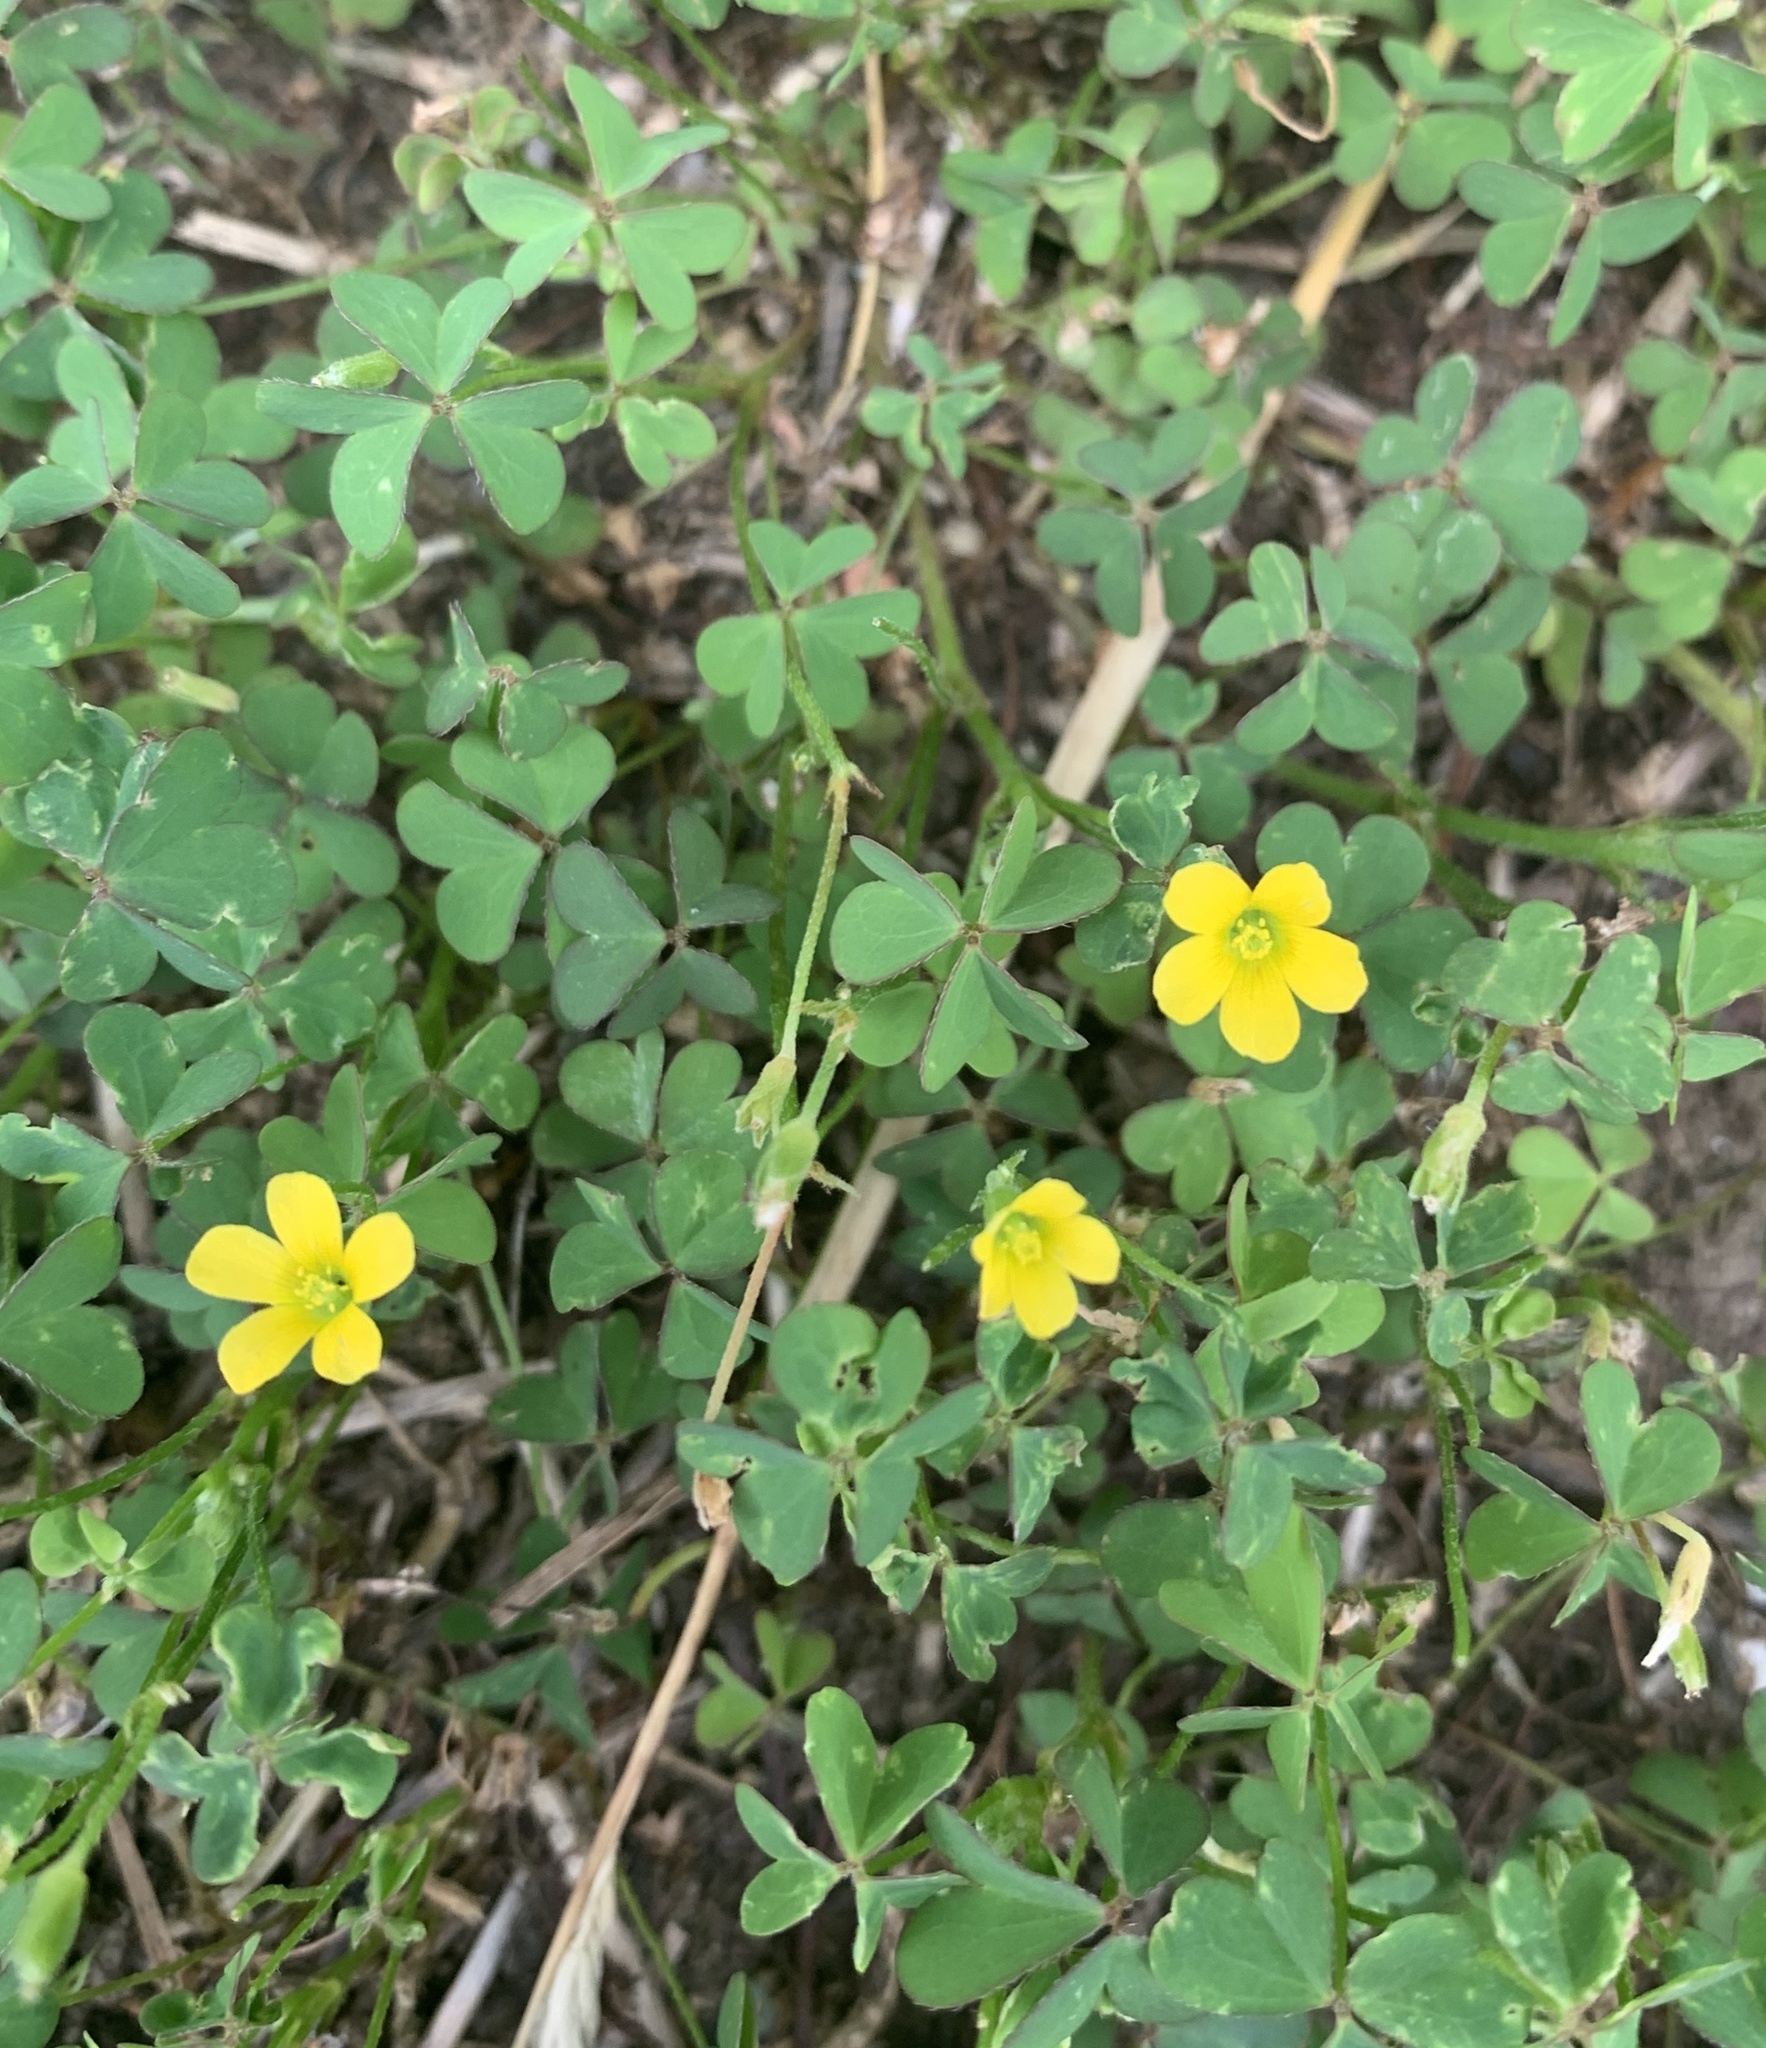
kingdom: Plantae
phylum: Tracheophyta
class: Magnoliopsida
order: Oxalidales
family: Oxalidaceae
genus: Oxalis
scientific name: Oxalis corniculata
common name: Procumbent yellow-sorrel
